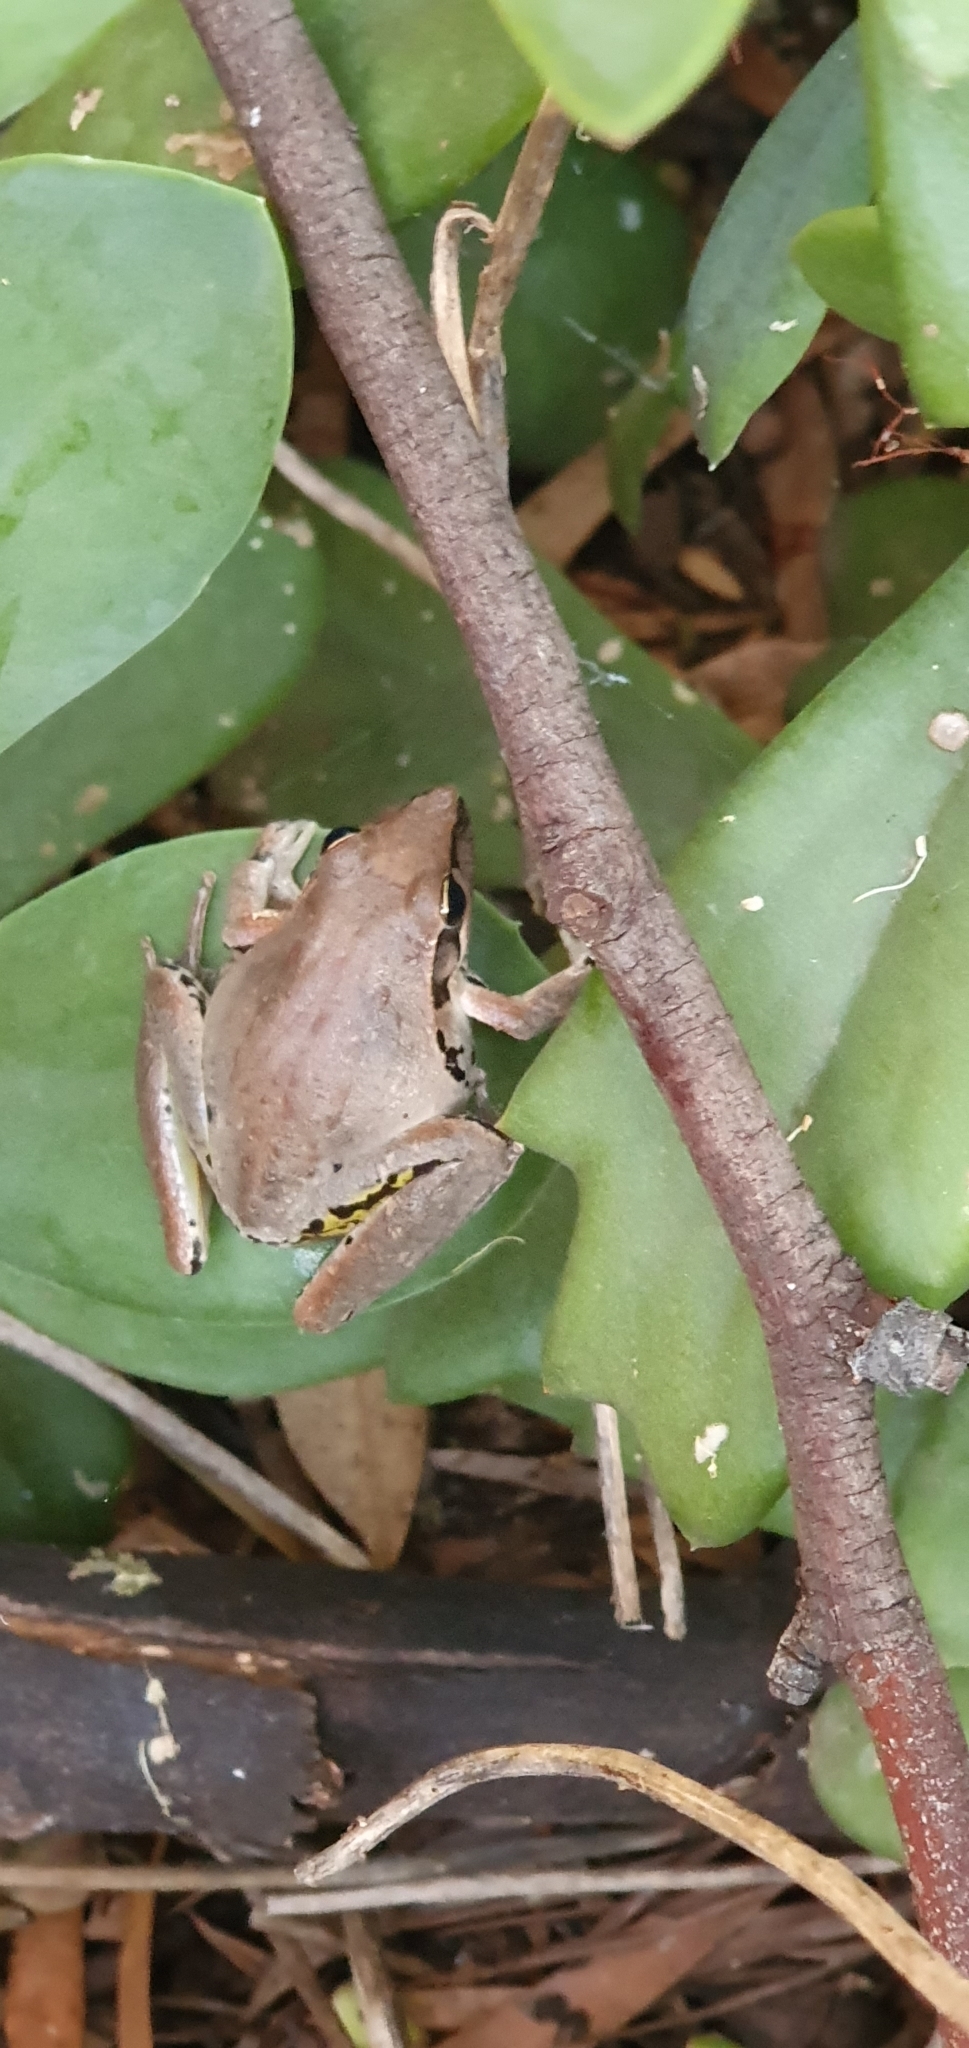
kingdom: Animalia
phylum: Chordata
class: Amphibia
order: Anura
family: Pelodryadidae
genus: Litoria
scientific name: Litoria latopalmata
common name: Broad-palmed rocket frog
